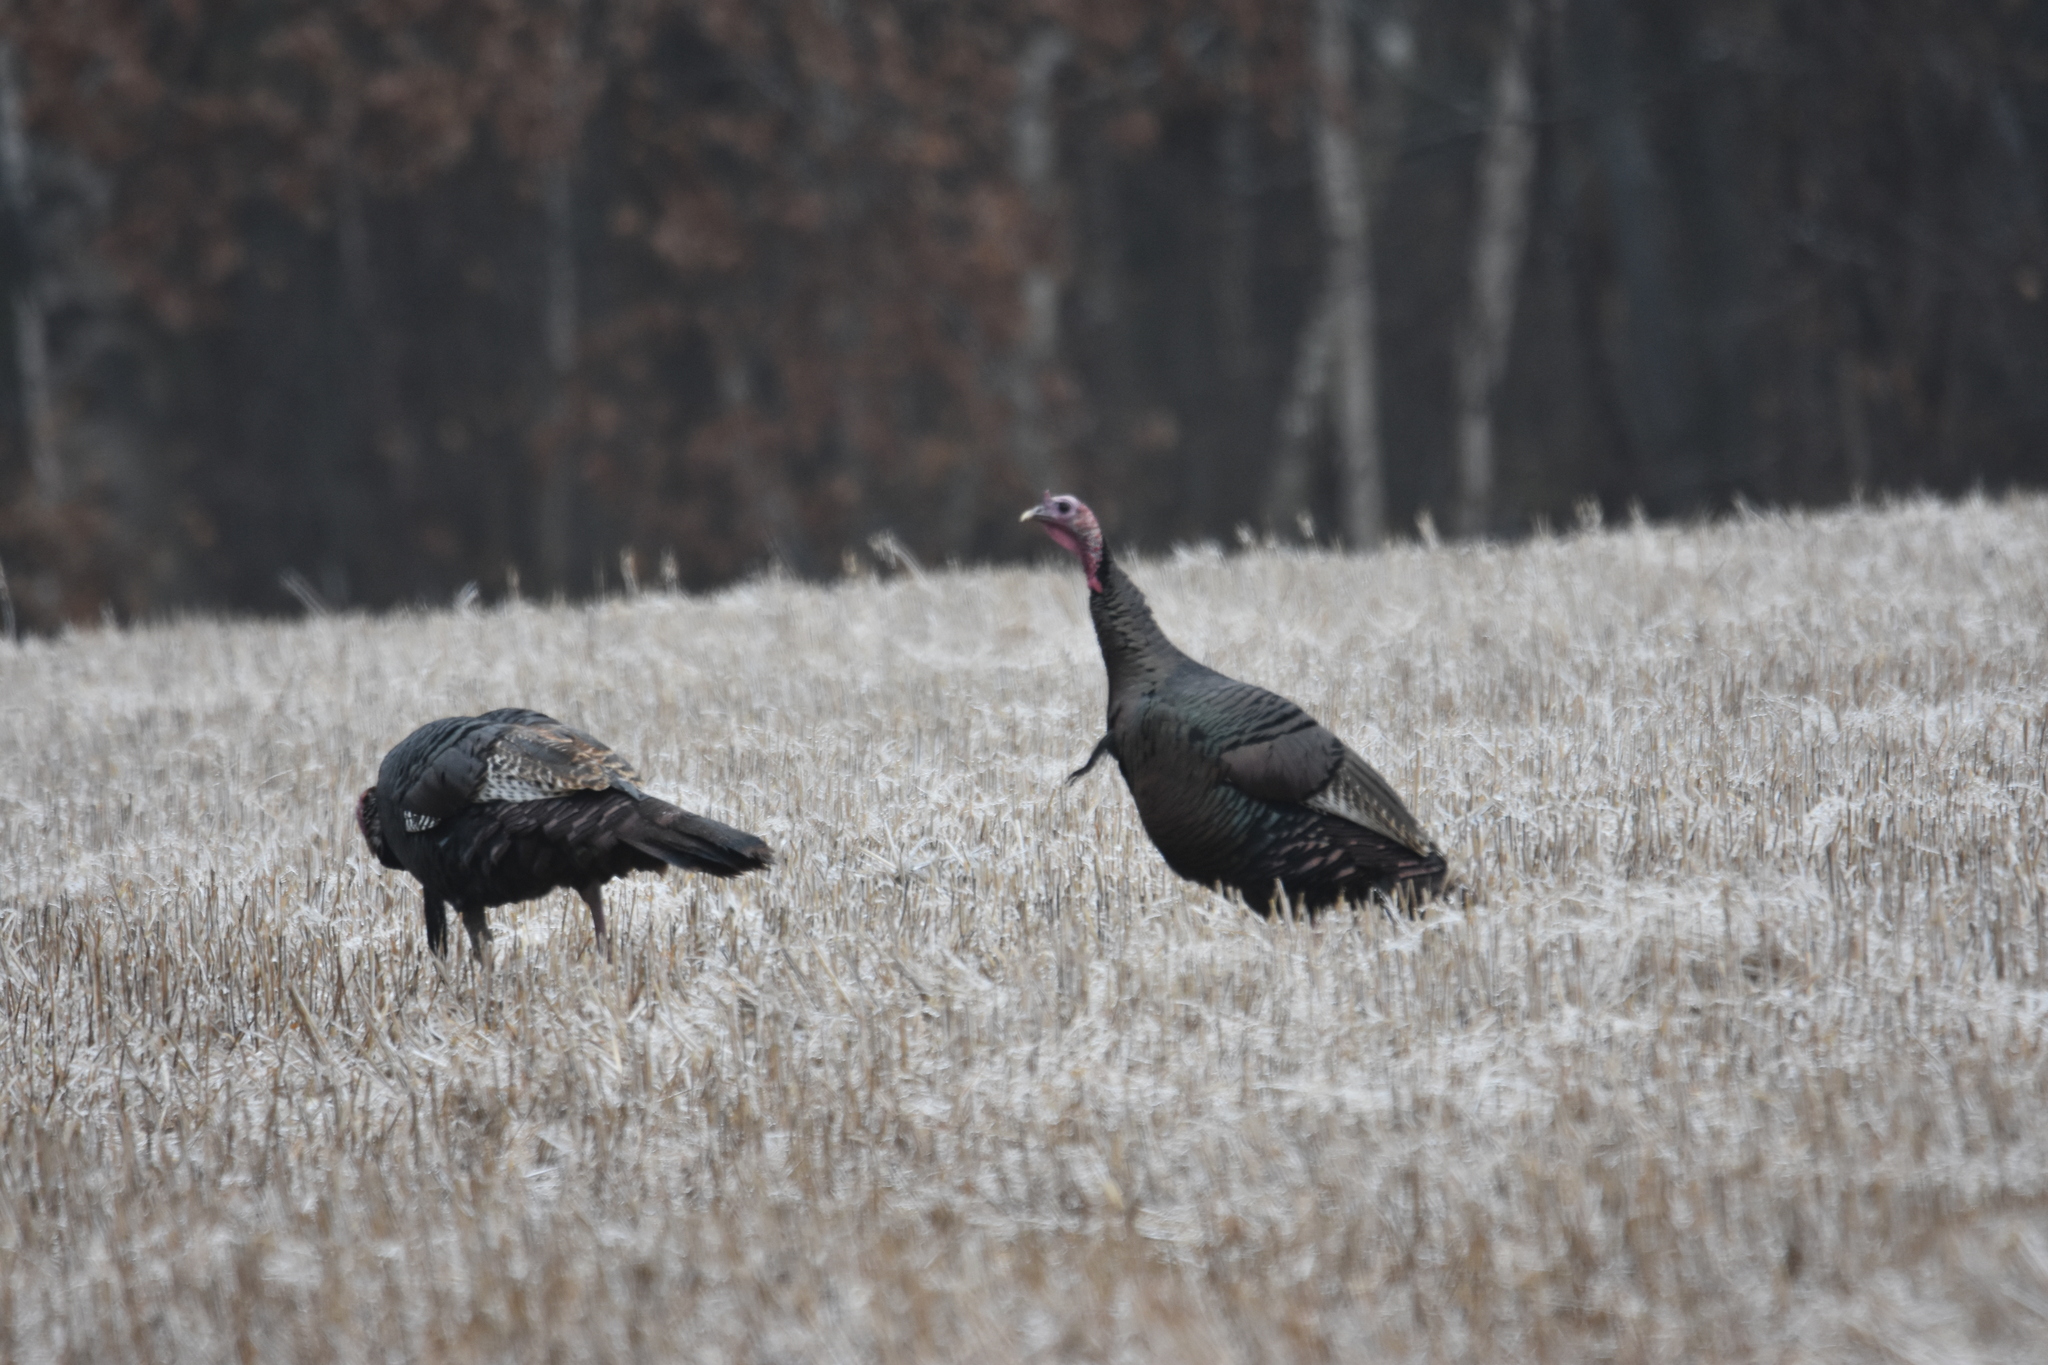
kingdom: Animalia
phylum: Chordata
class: Aves
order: Galliformes
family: Phasianidae
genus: Meleagris
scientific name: Meleagris gallopavo
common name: Wild turkey
